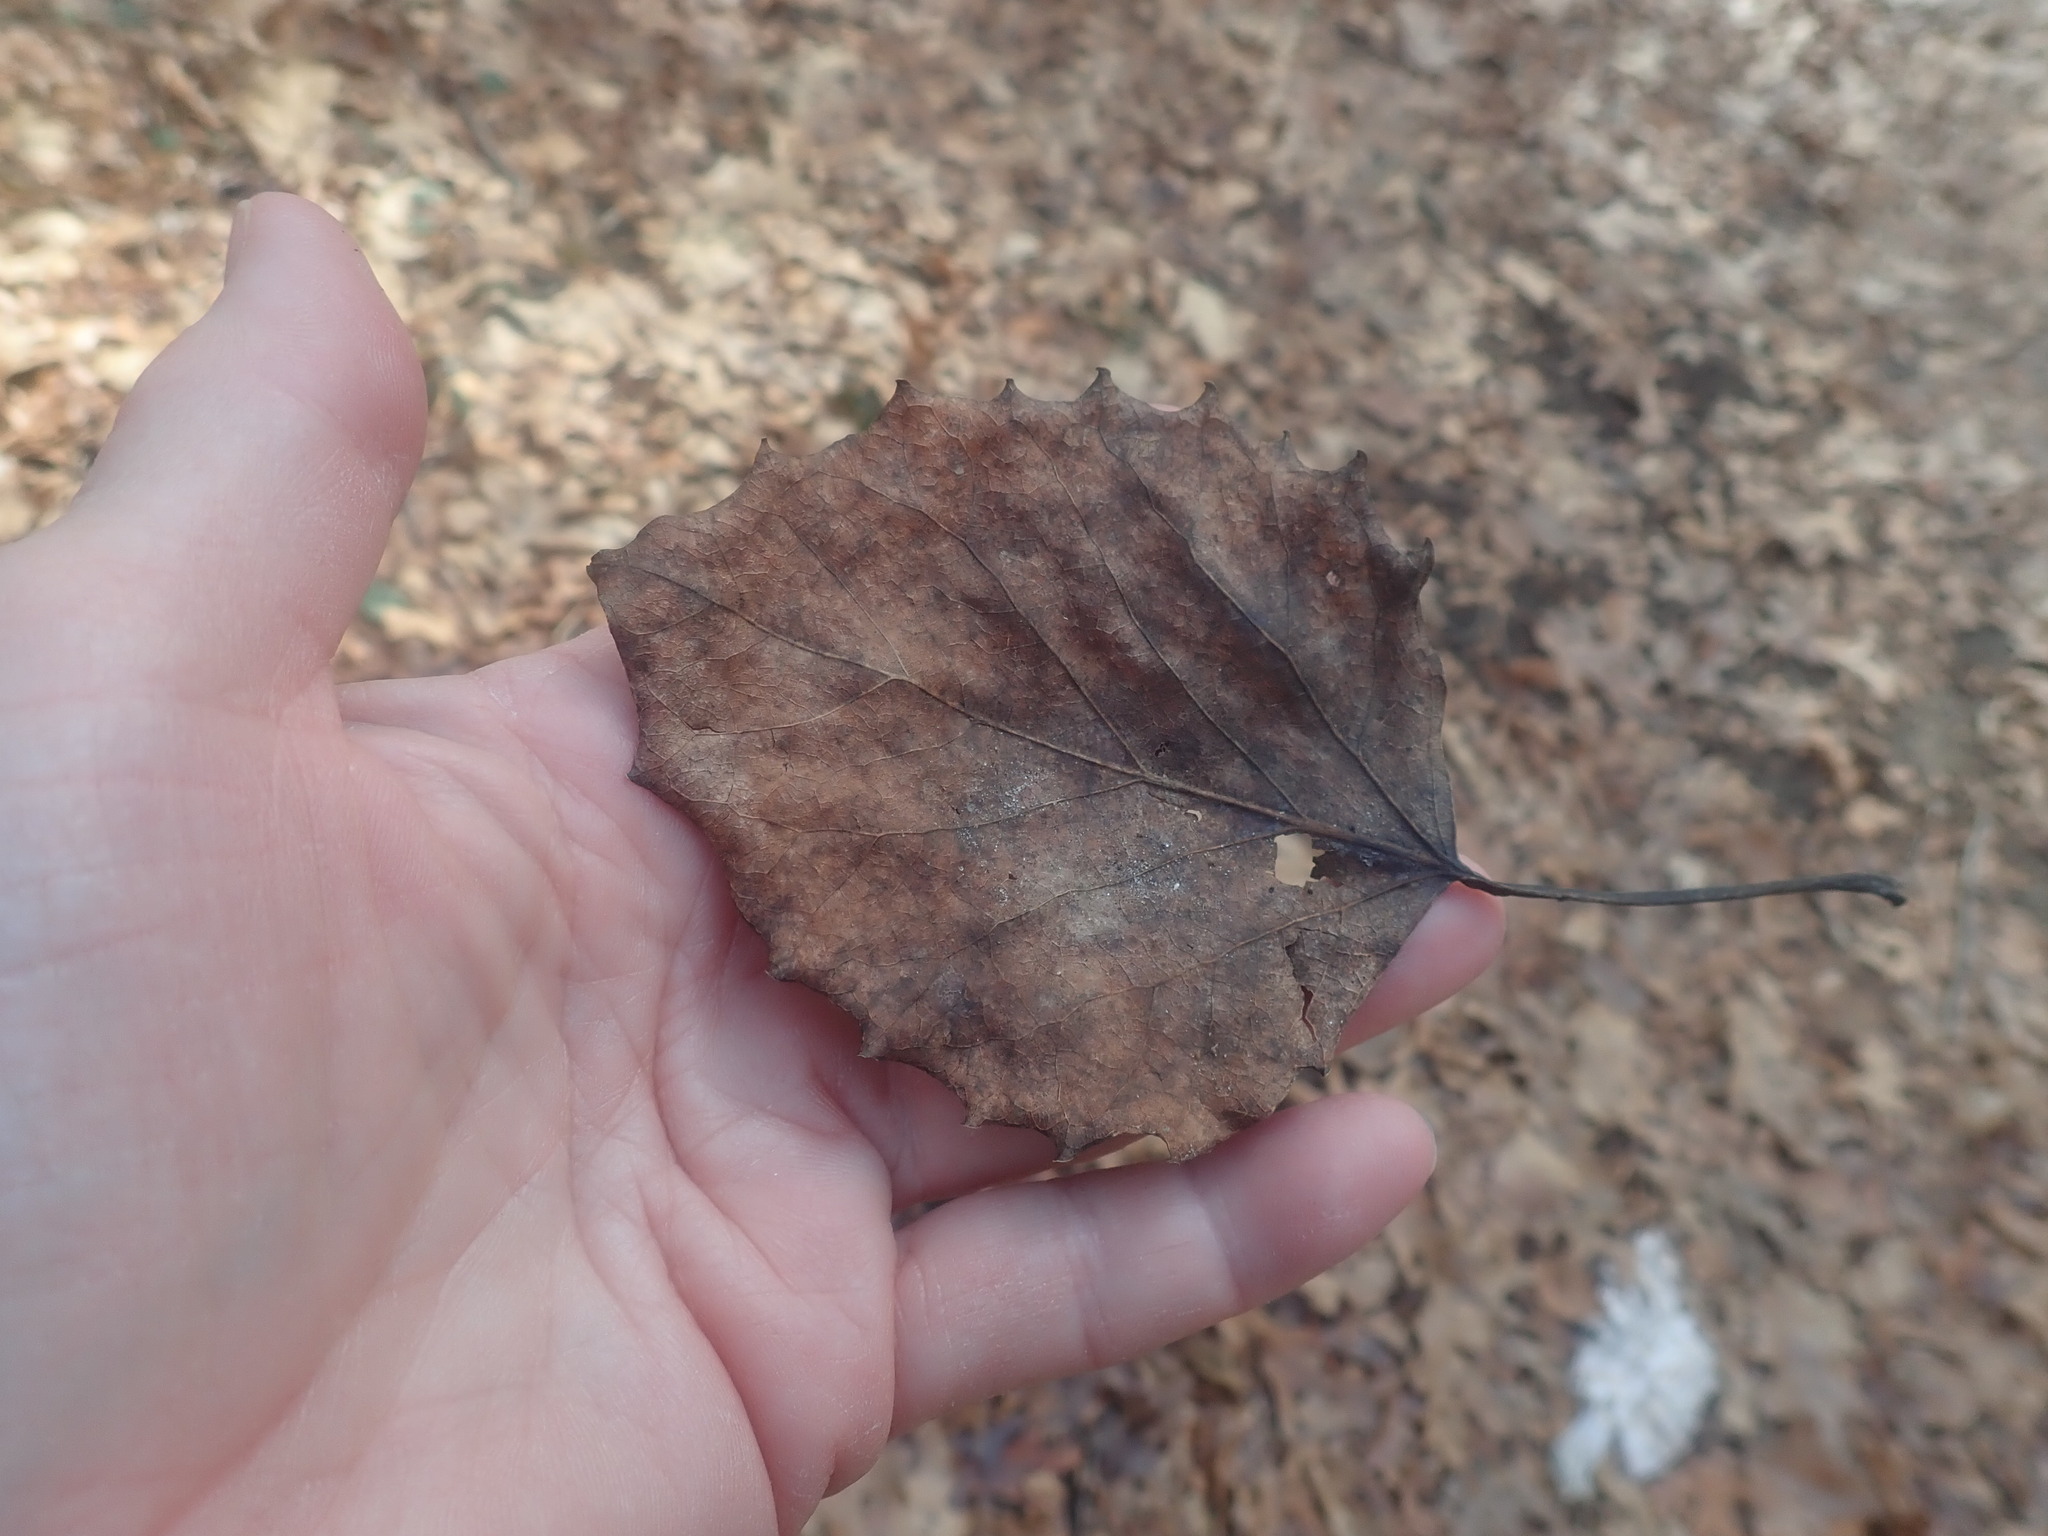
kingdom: Plantae
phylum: Tracheophyta
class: Magnoliopsida
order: Malpighiales
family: Salicaceae
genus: Populus
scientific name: Populus grandidentata
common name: Bigtooth aspen
